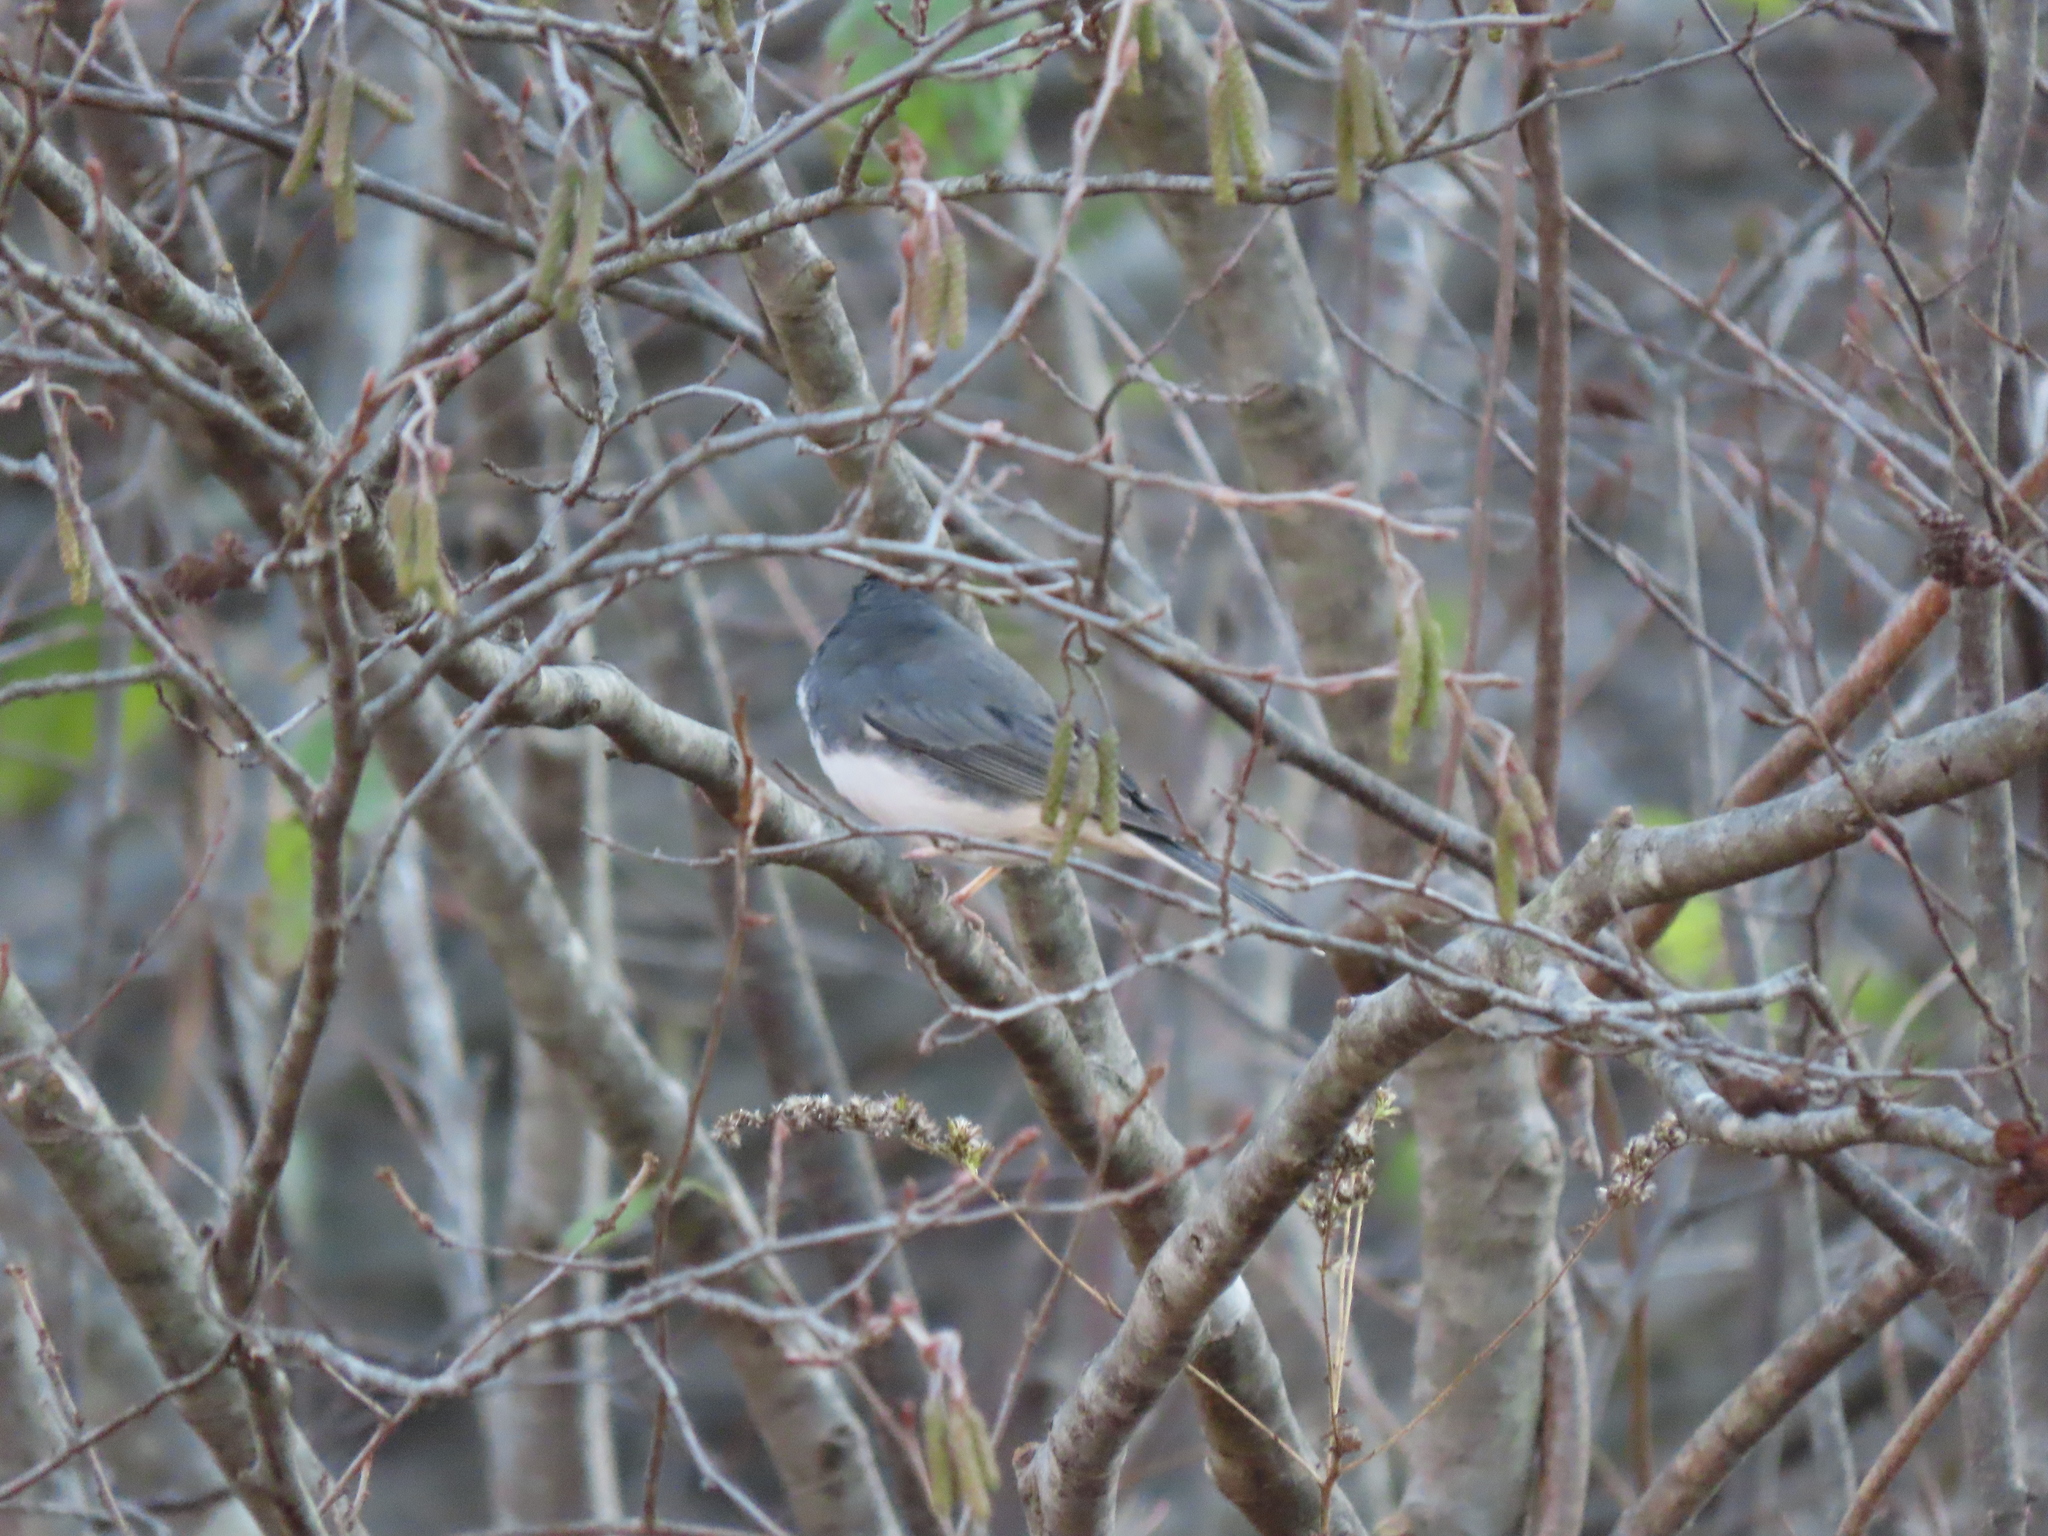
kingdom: Animalia
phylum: Chordata
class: Aves
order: Passeriformes
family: Passerellidae
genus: Junco
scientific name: Junco hyemalis
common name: Dark-eyed junco
